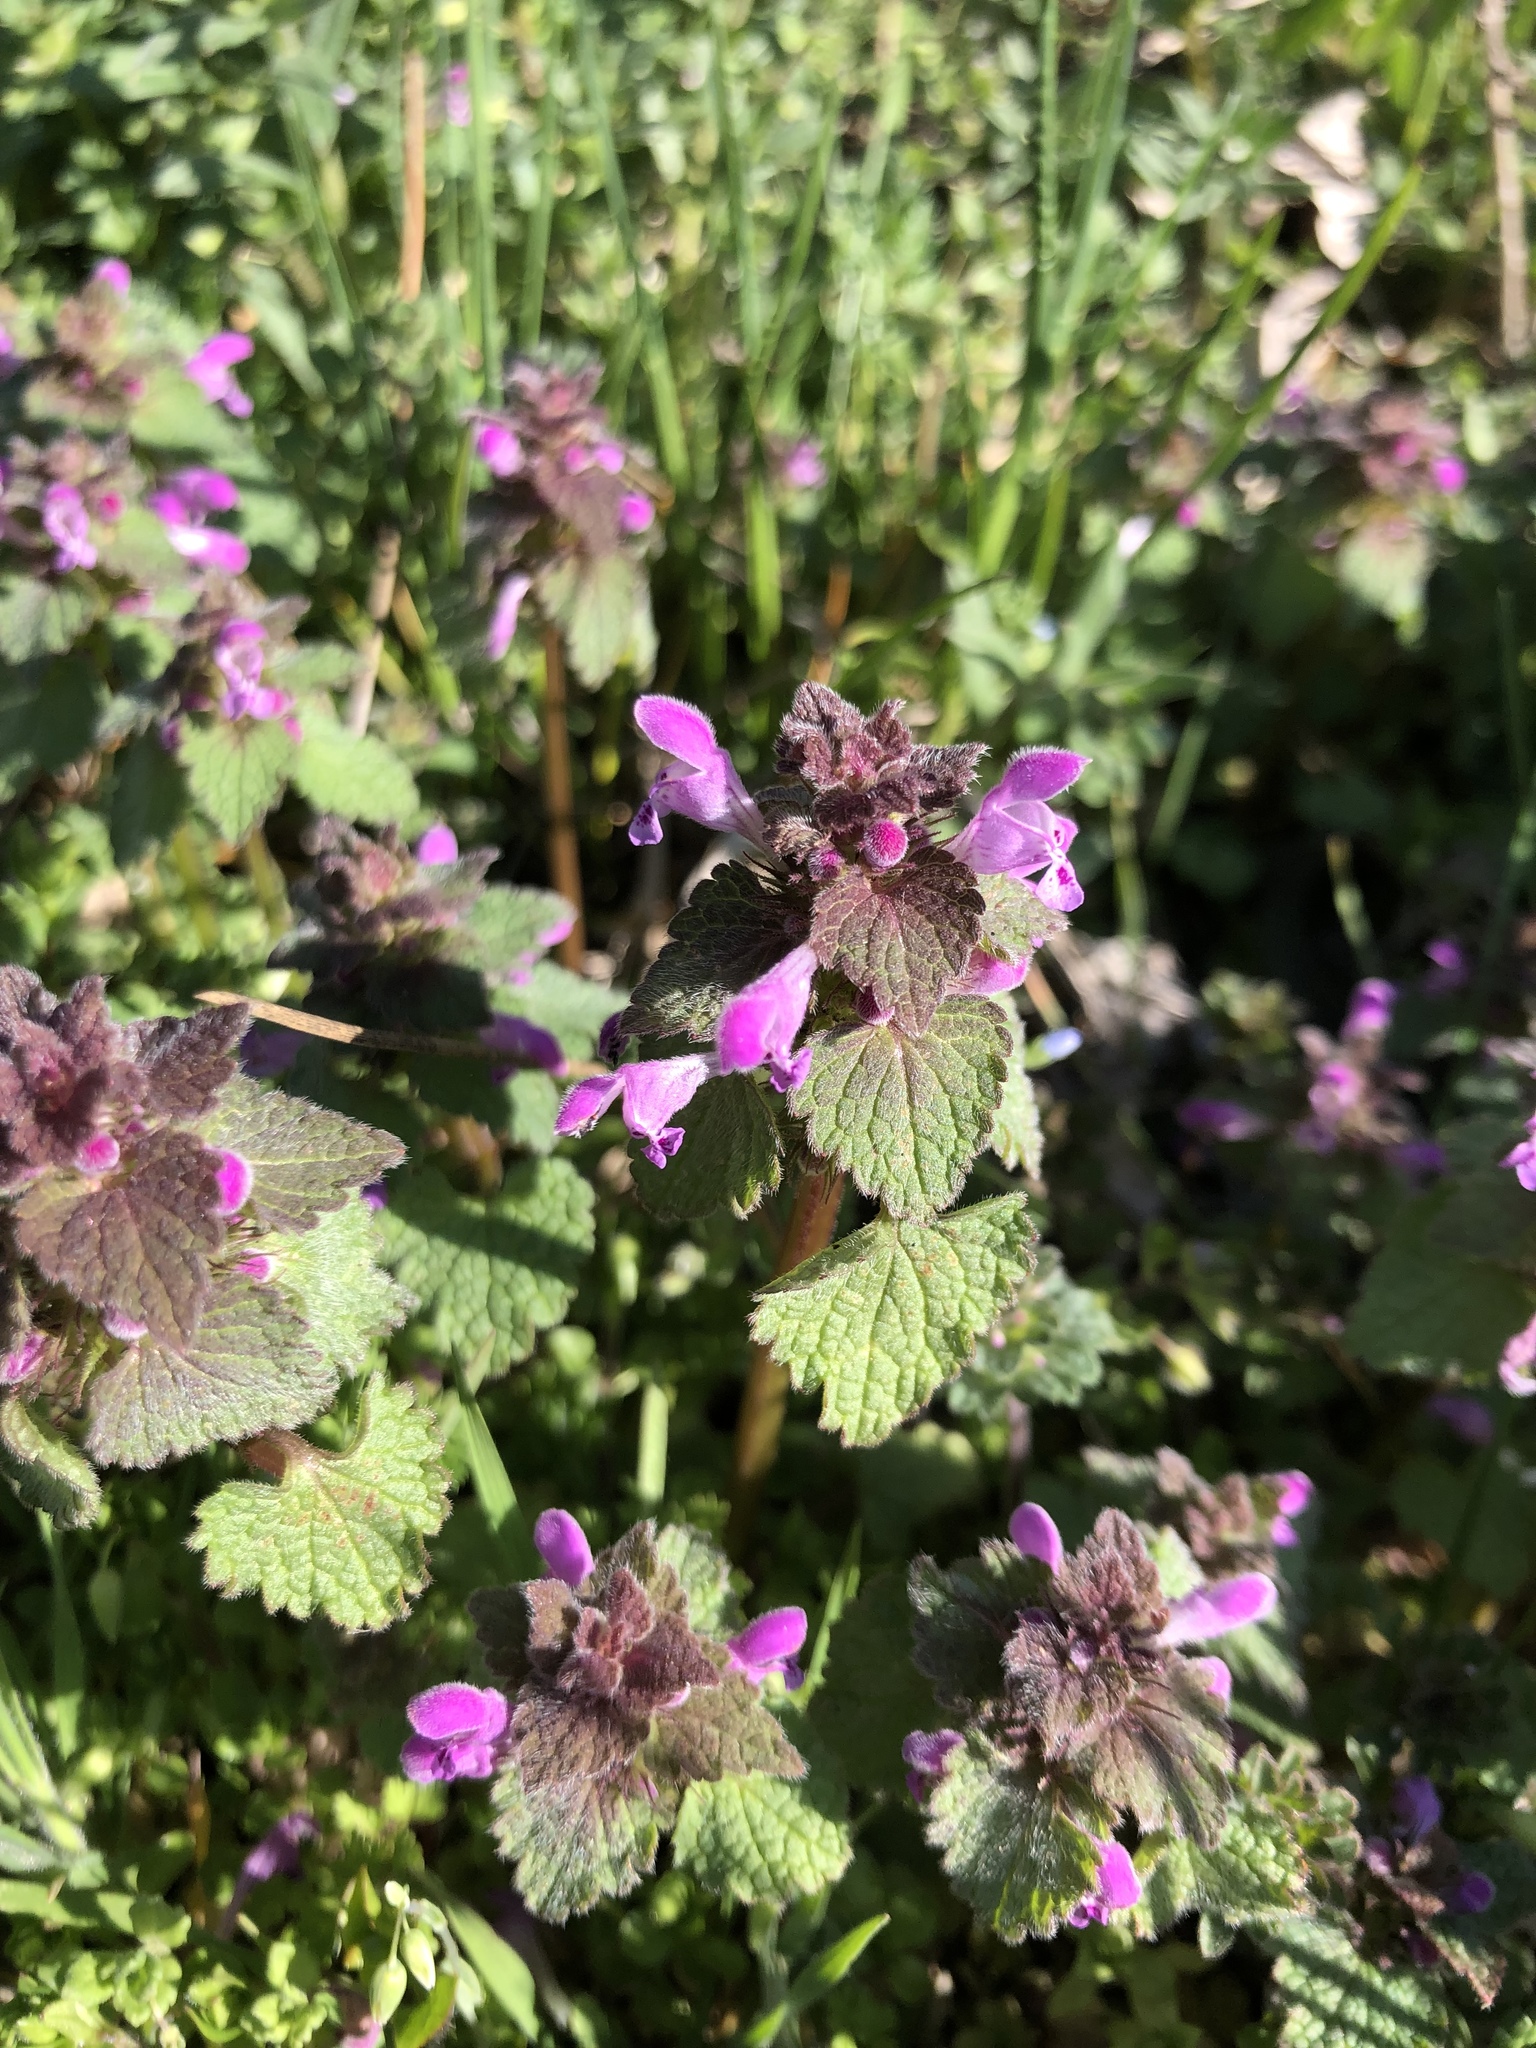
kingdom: Plantae
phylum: Tracheophyta
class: Magnoliopsida
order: Lamiales
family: Lamiaceae
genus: Lamium
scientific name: Lamium purpureum
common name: Red dead-nettle
